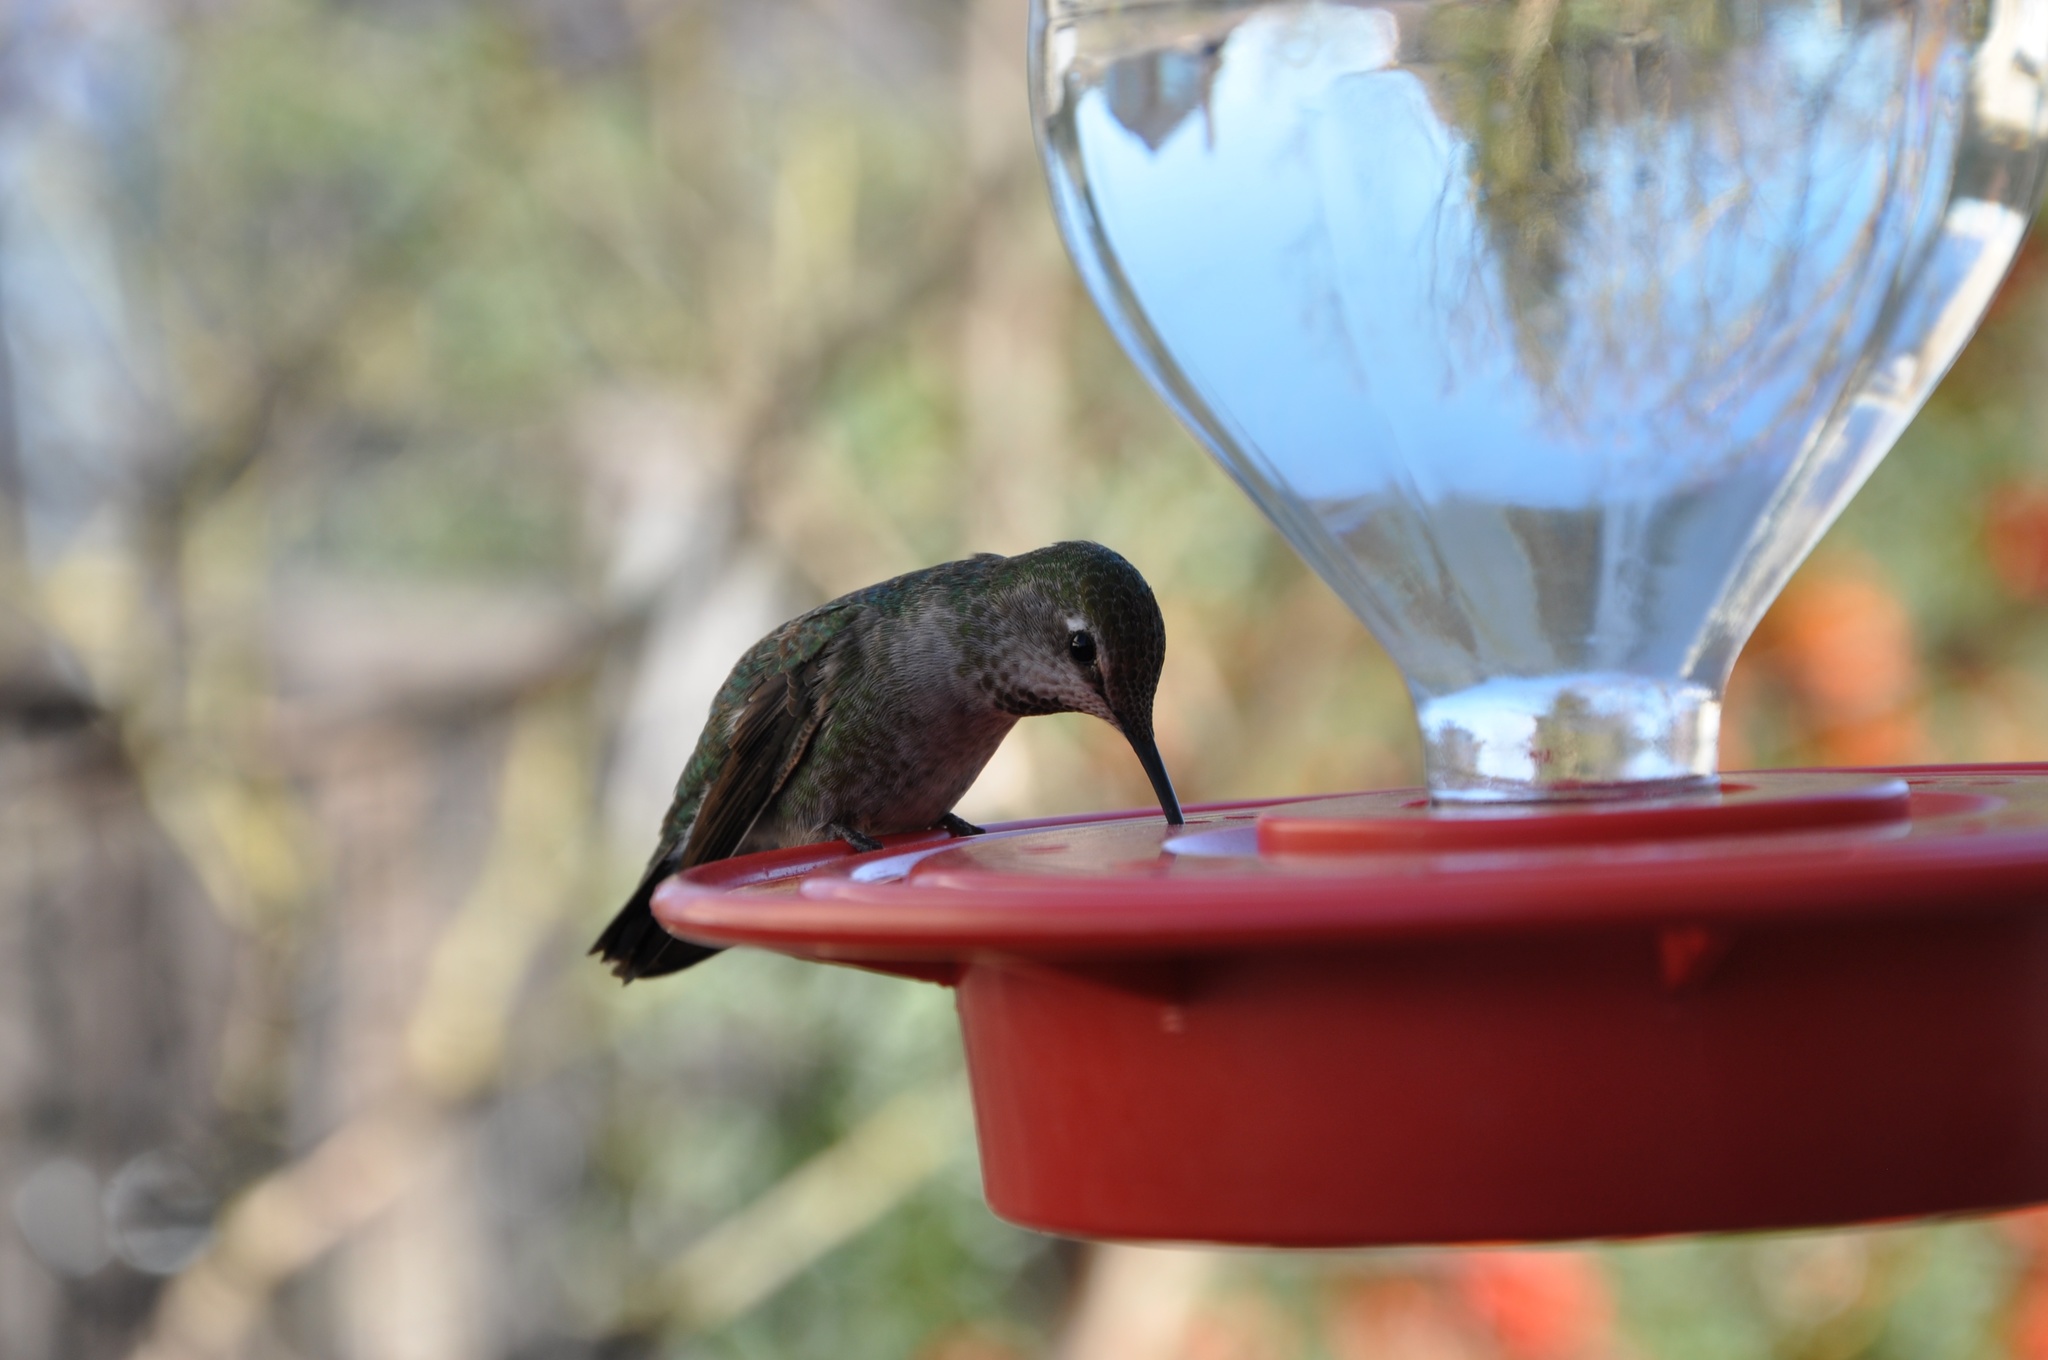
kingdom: Animalia
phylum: Chordata
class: Aves
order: Apodiformes
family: Trochilidae
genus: Calypte
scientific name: Calypte anna
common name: Anna's hummingbird
